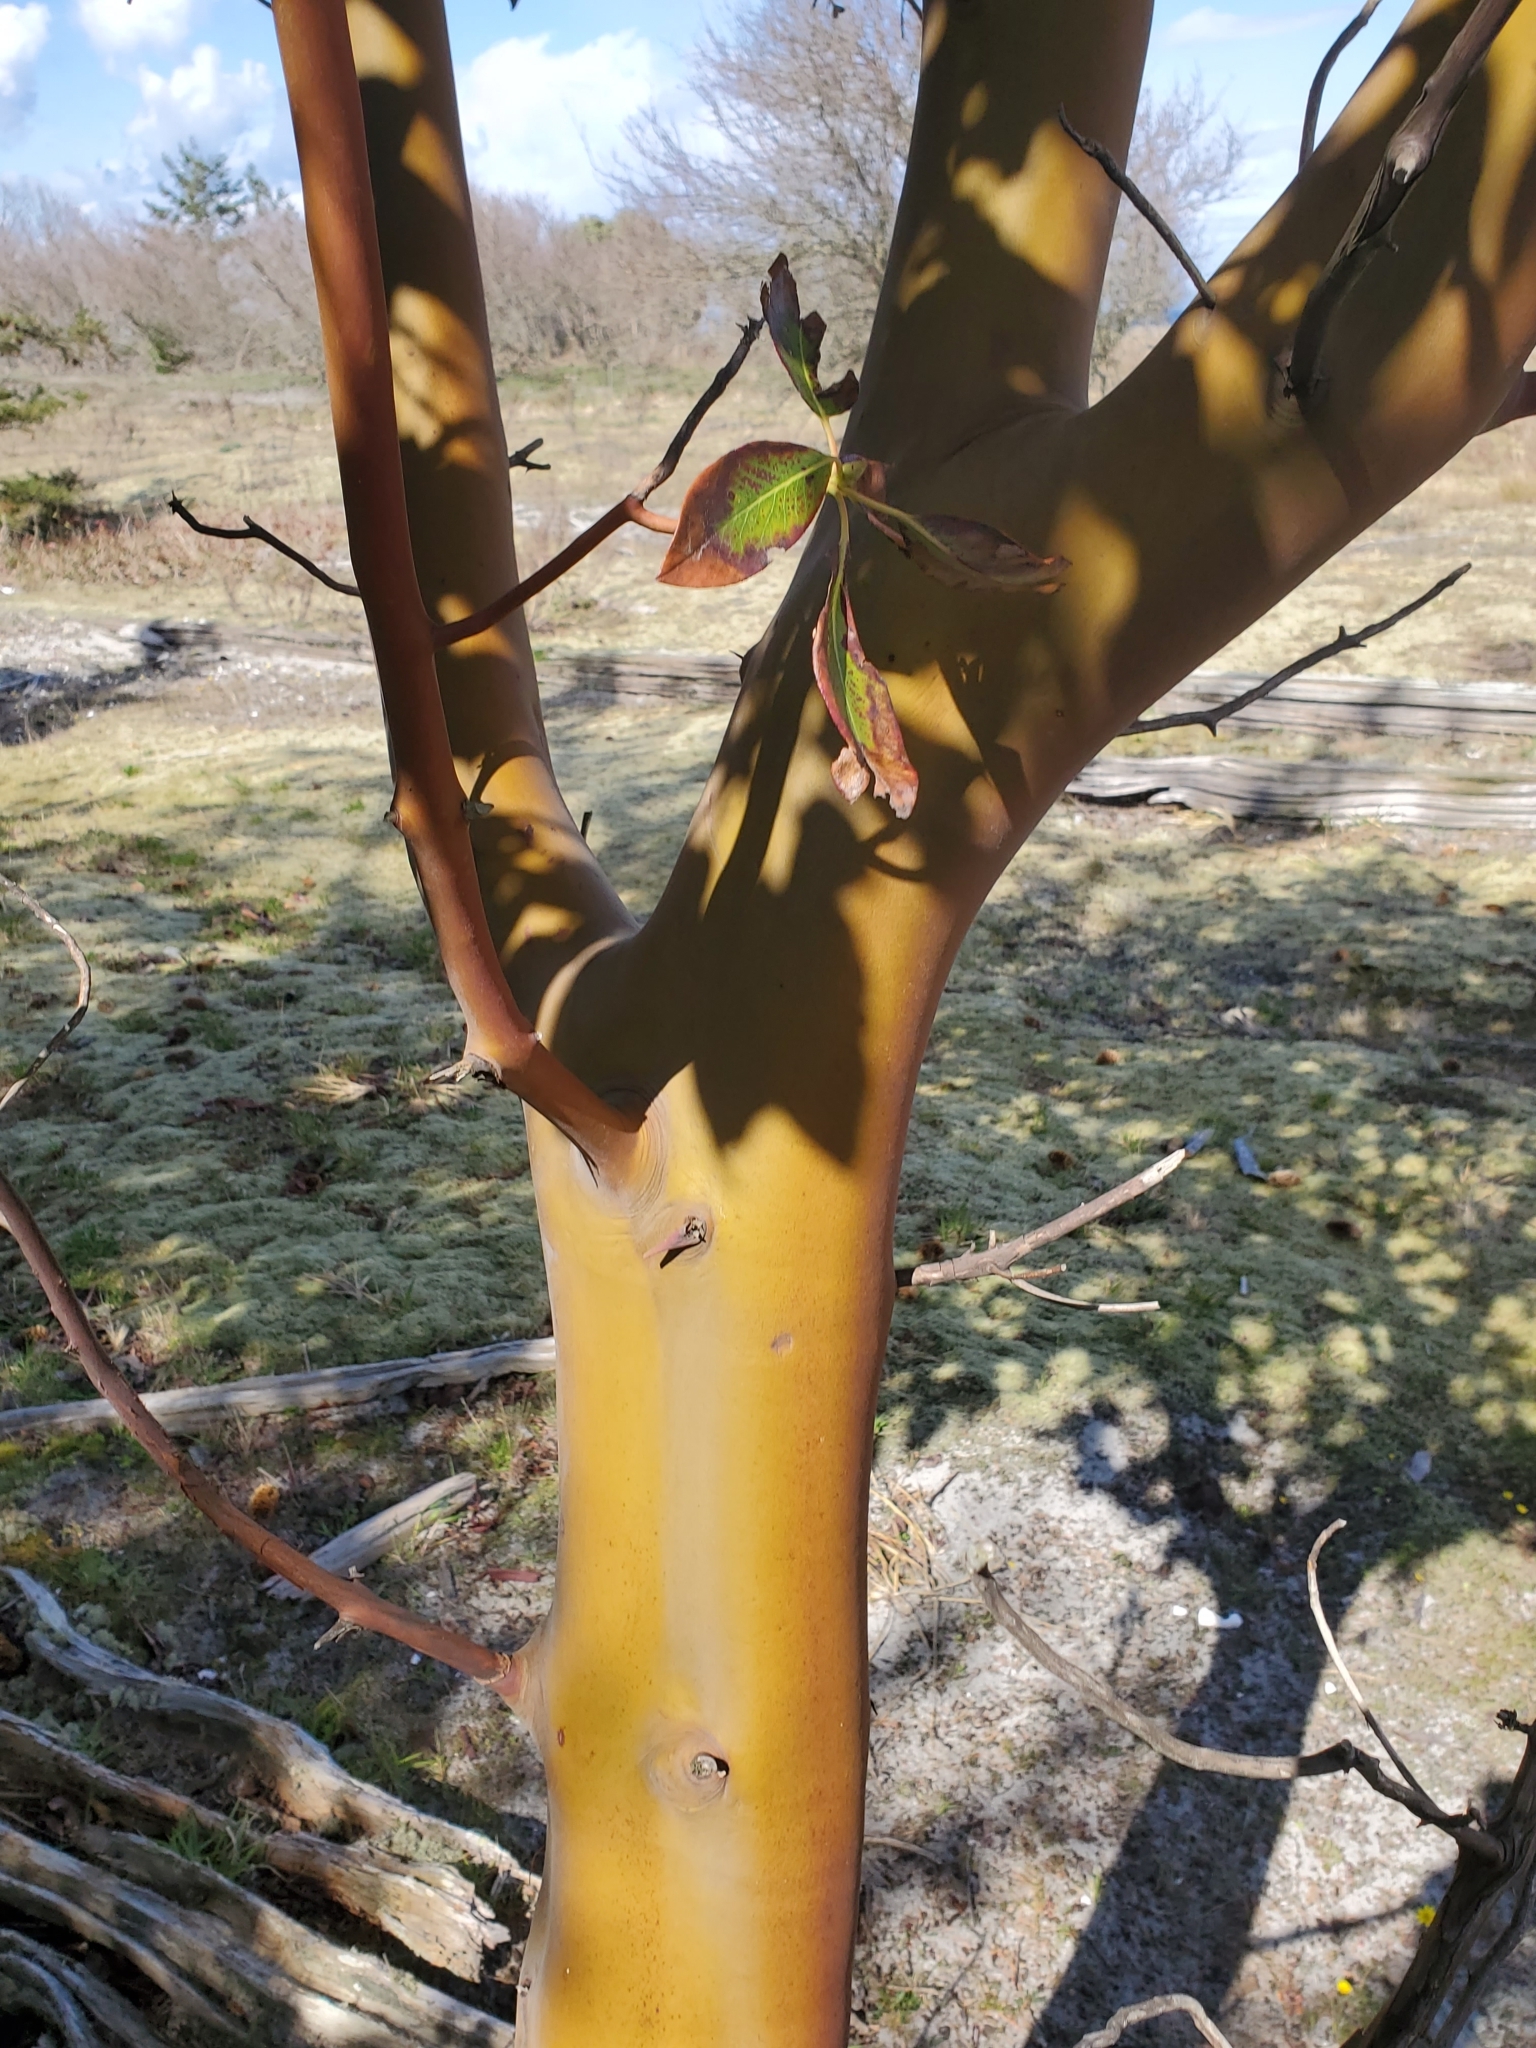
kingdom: Plantae
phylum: Tracheophyta
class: Magnoliopsida
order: Ericales
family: Ericaceae
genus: Arbutus
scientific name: Arbutus menziesii
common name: Pacific madrone
